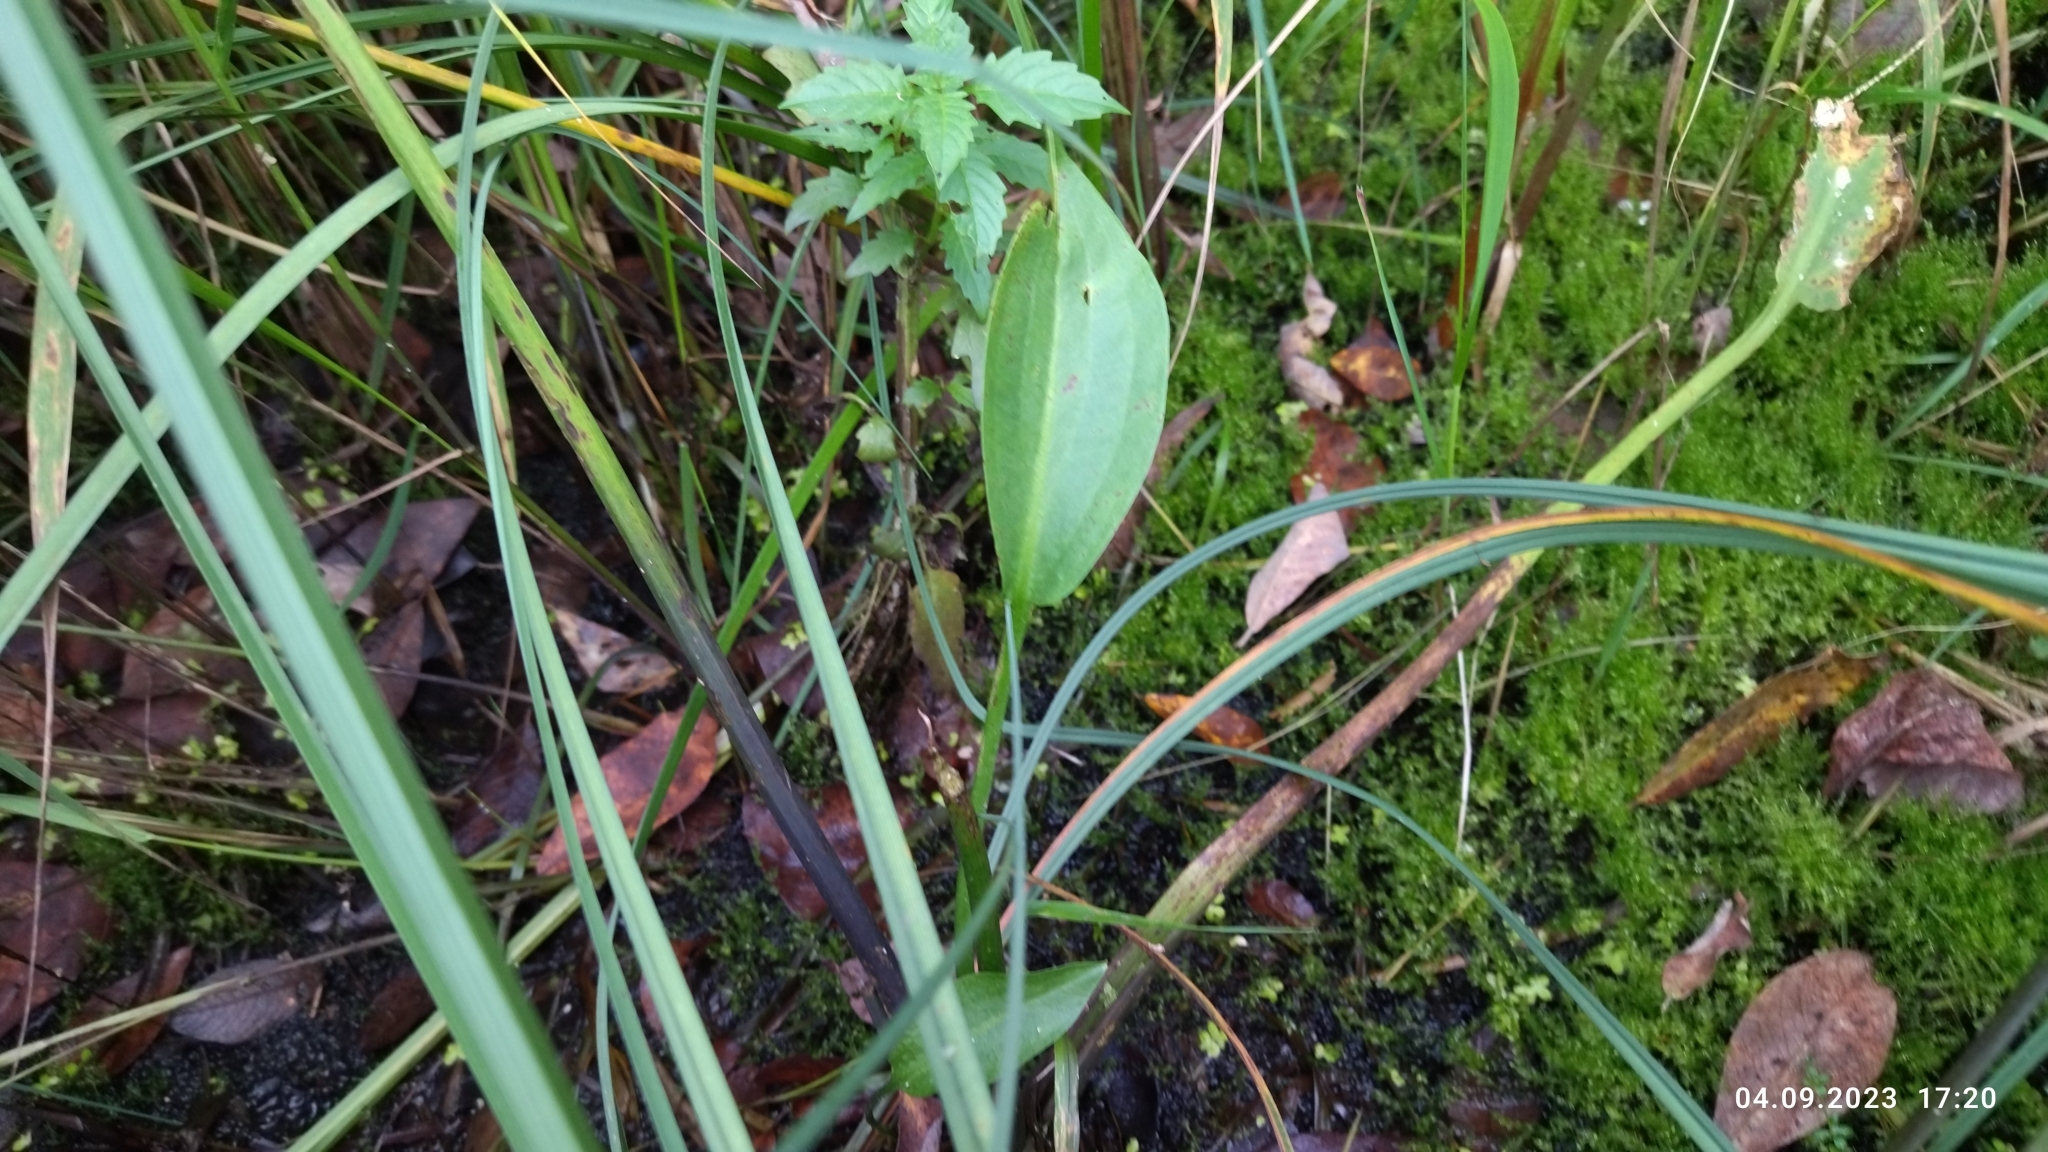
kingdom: Plantae
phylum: Tracheophyta
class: Liliopsida
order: Alismatales
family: Alismataceae
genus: Alisma
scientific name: Alisma plantago-aquatica
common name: Water-plantain
